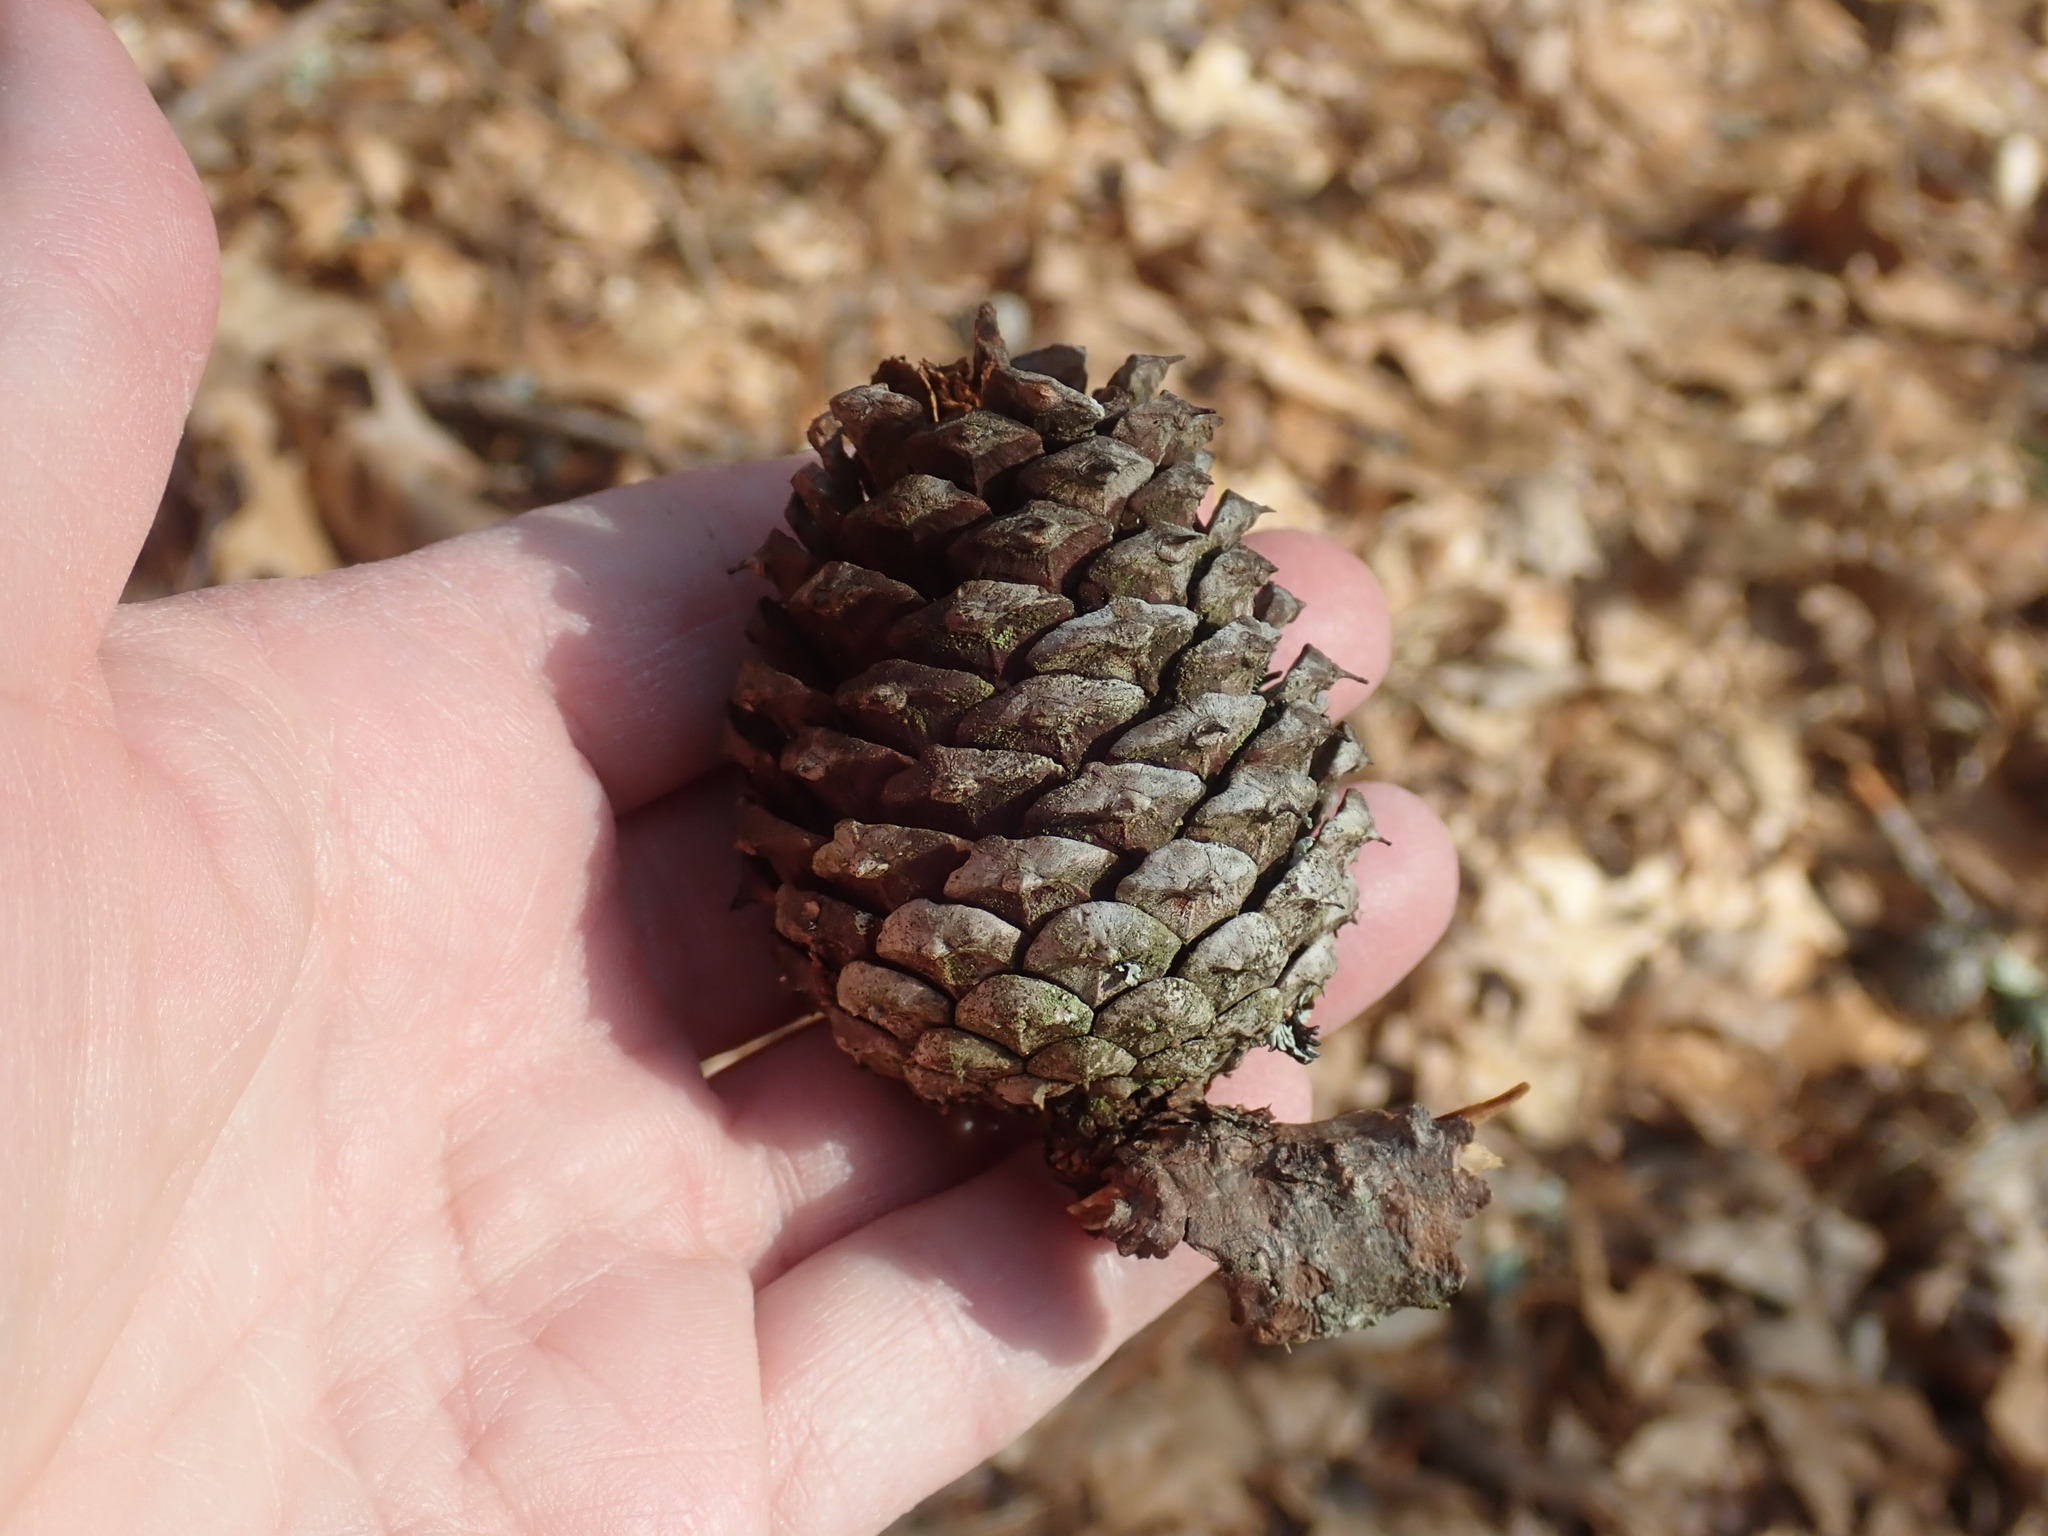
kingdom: Plantae
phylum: Tracheophyta
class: Pinopsida
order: Pinales
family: Pinaceae
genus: Pinus
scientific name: Pinus rigida
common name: Pitch pine
